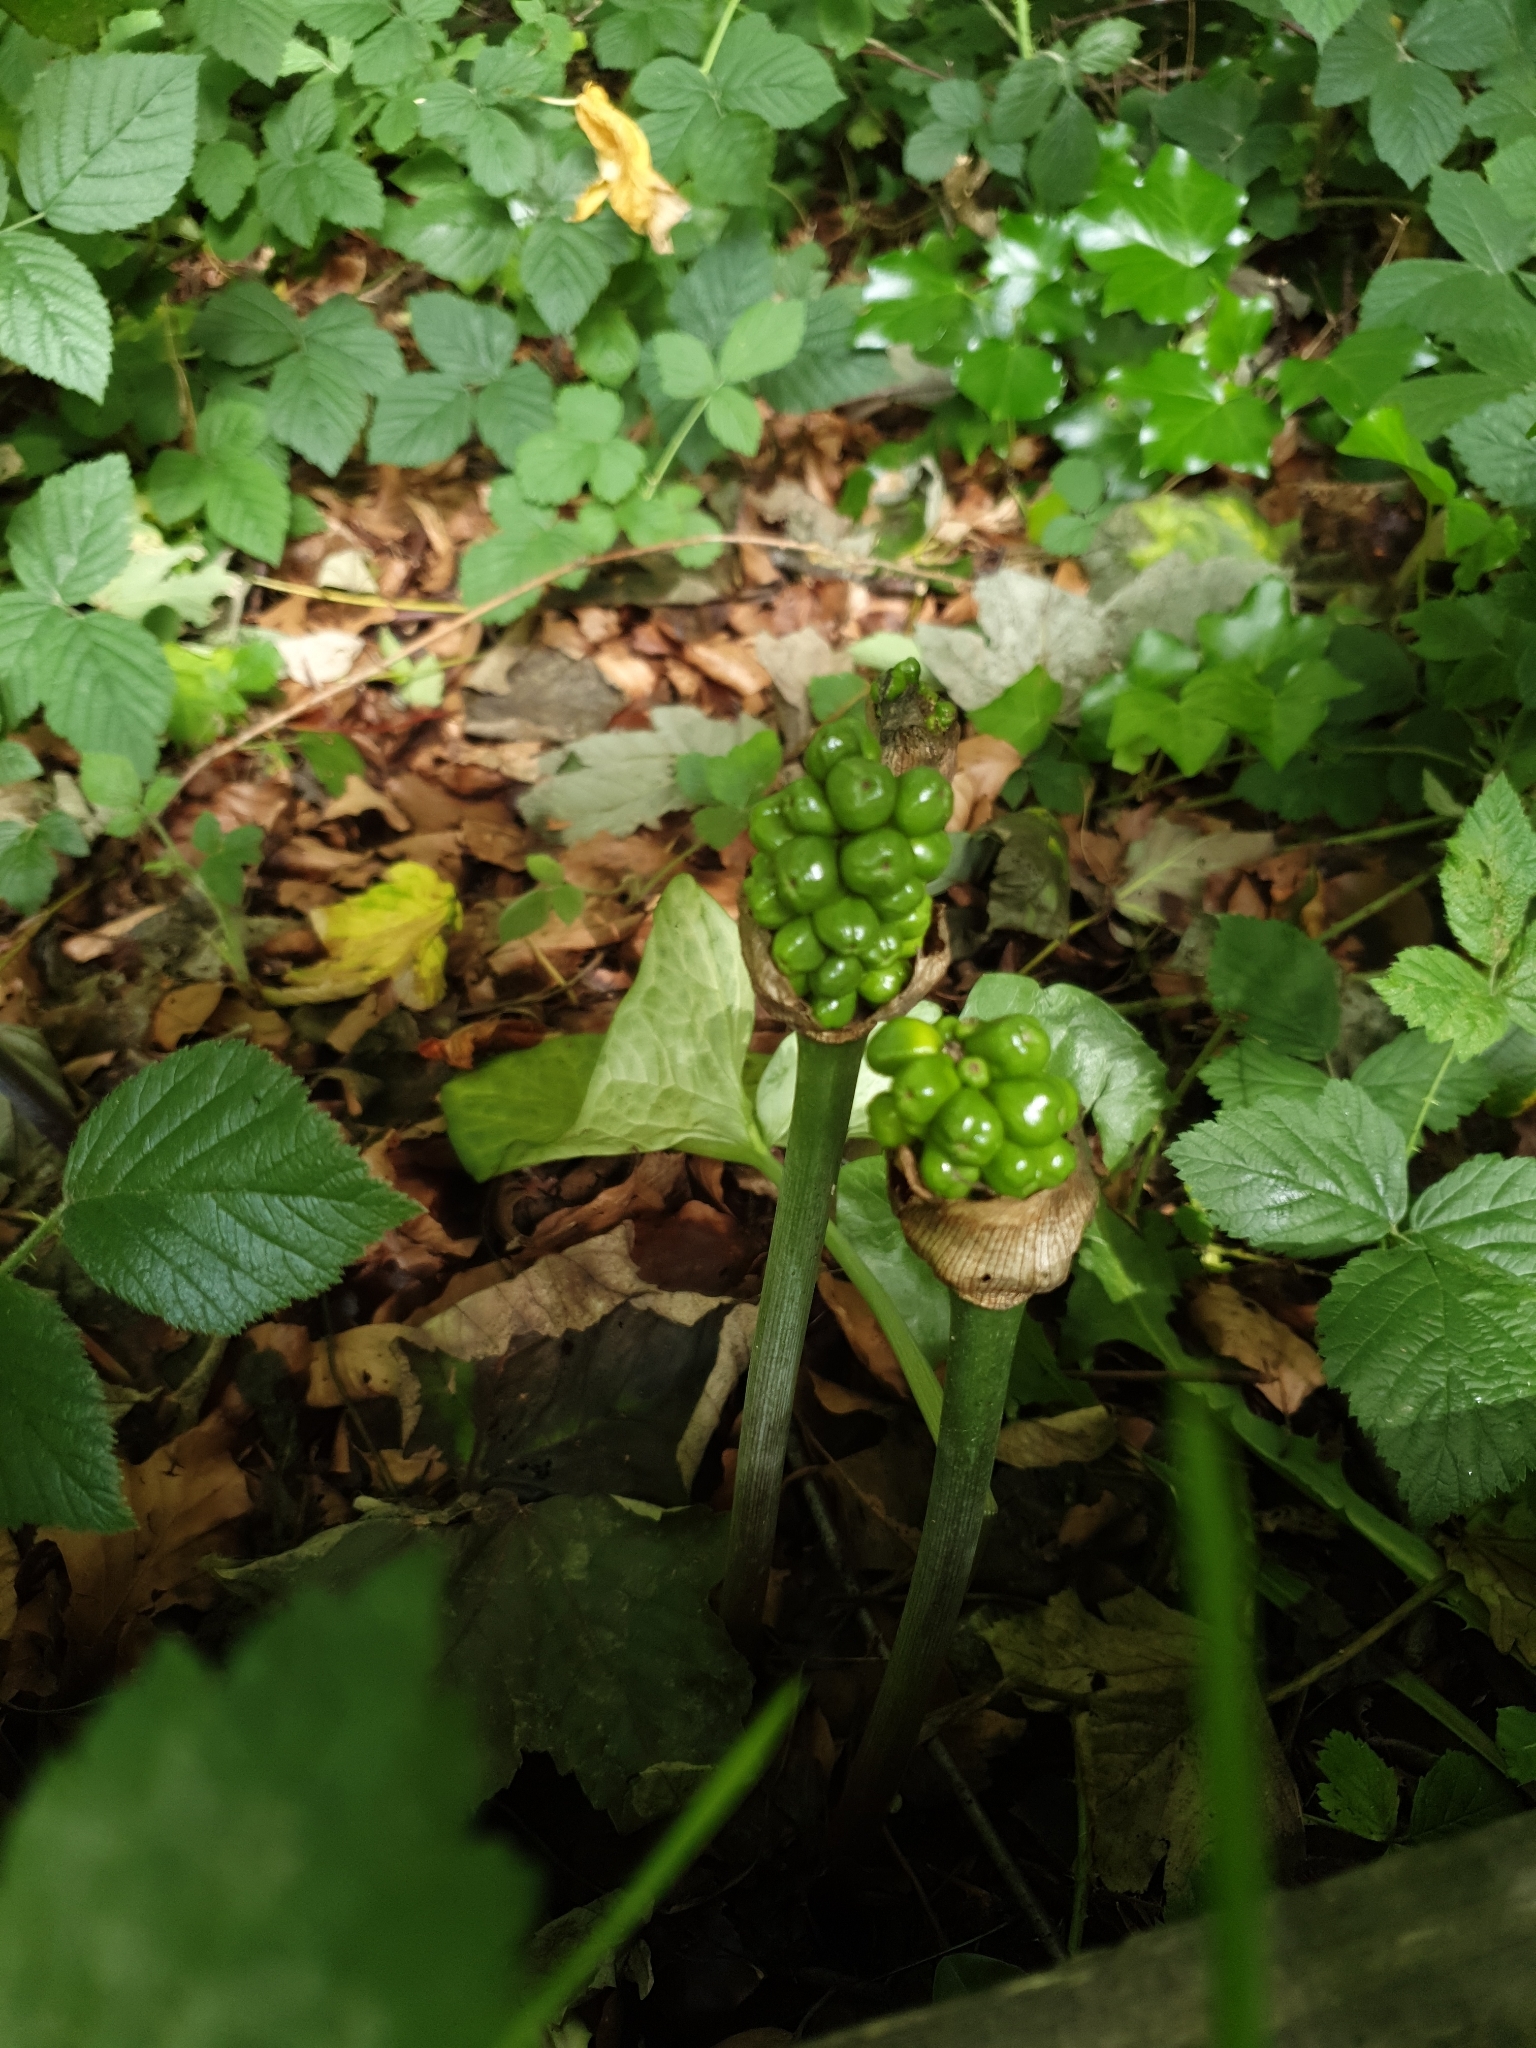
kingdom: Plantae
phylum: Tracheophyta
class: Liliopsida
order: Alismatales
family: Araceae
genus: Arum
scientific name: Arum maculatum
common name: Lords-and-ladies
